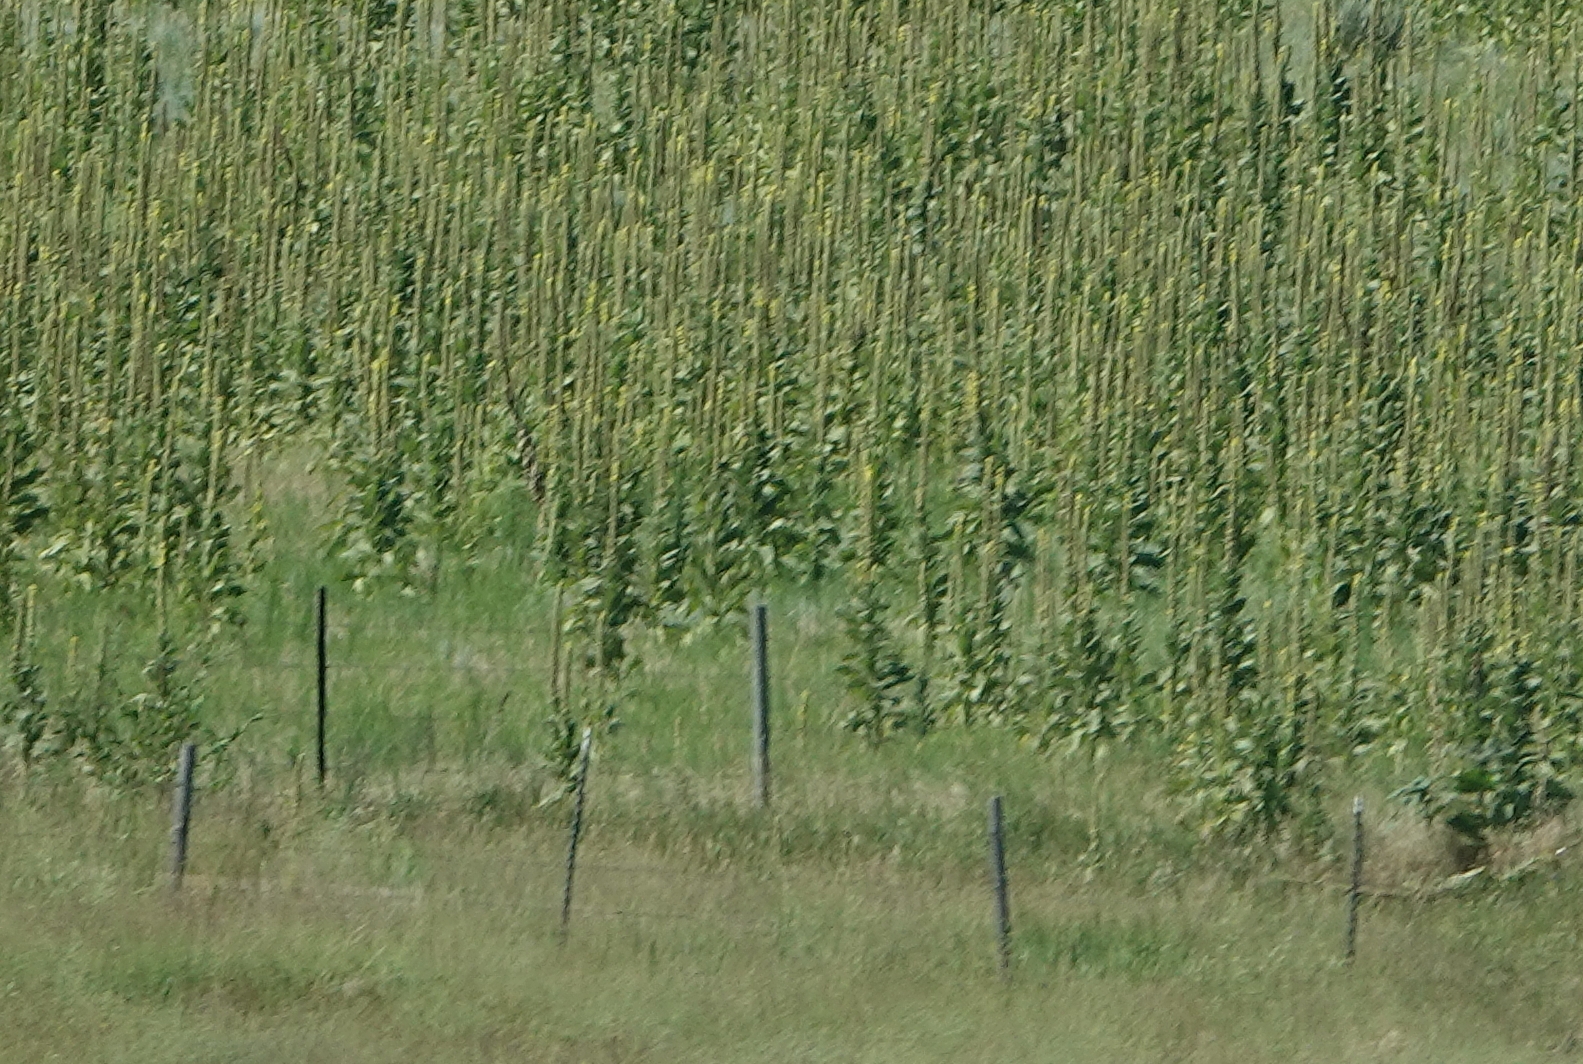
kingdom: Plantae
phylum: Tracheophyta
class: Magnoliopsida
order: Lamiales
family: Scrophulariaceae
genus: Verbascum
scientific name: Verbascum thapsus
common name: Common mullein
